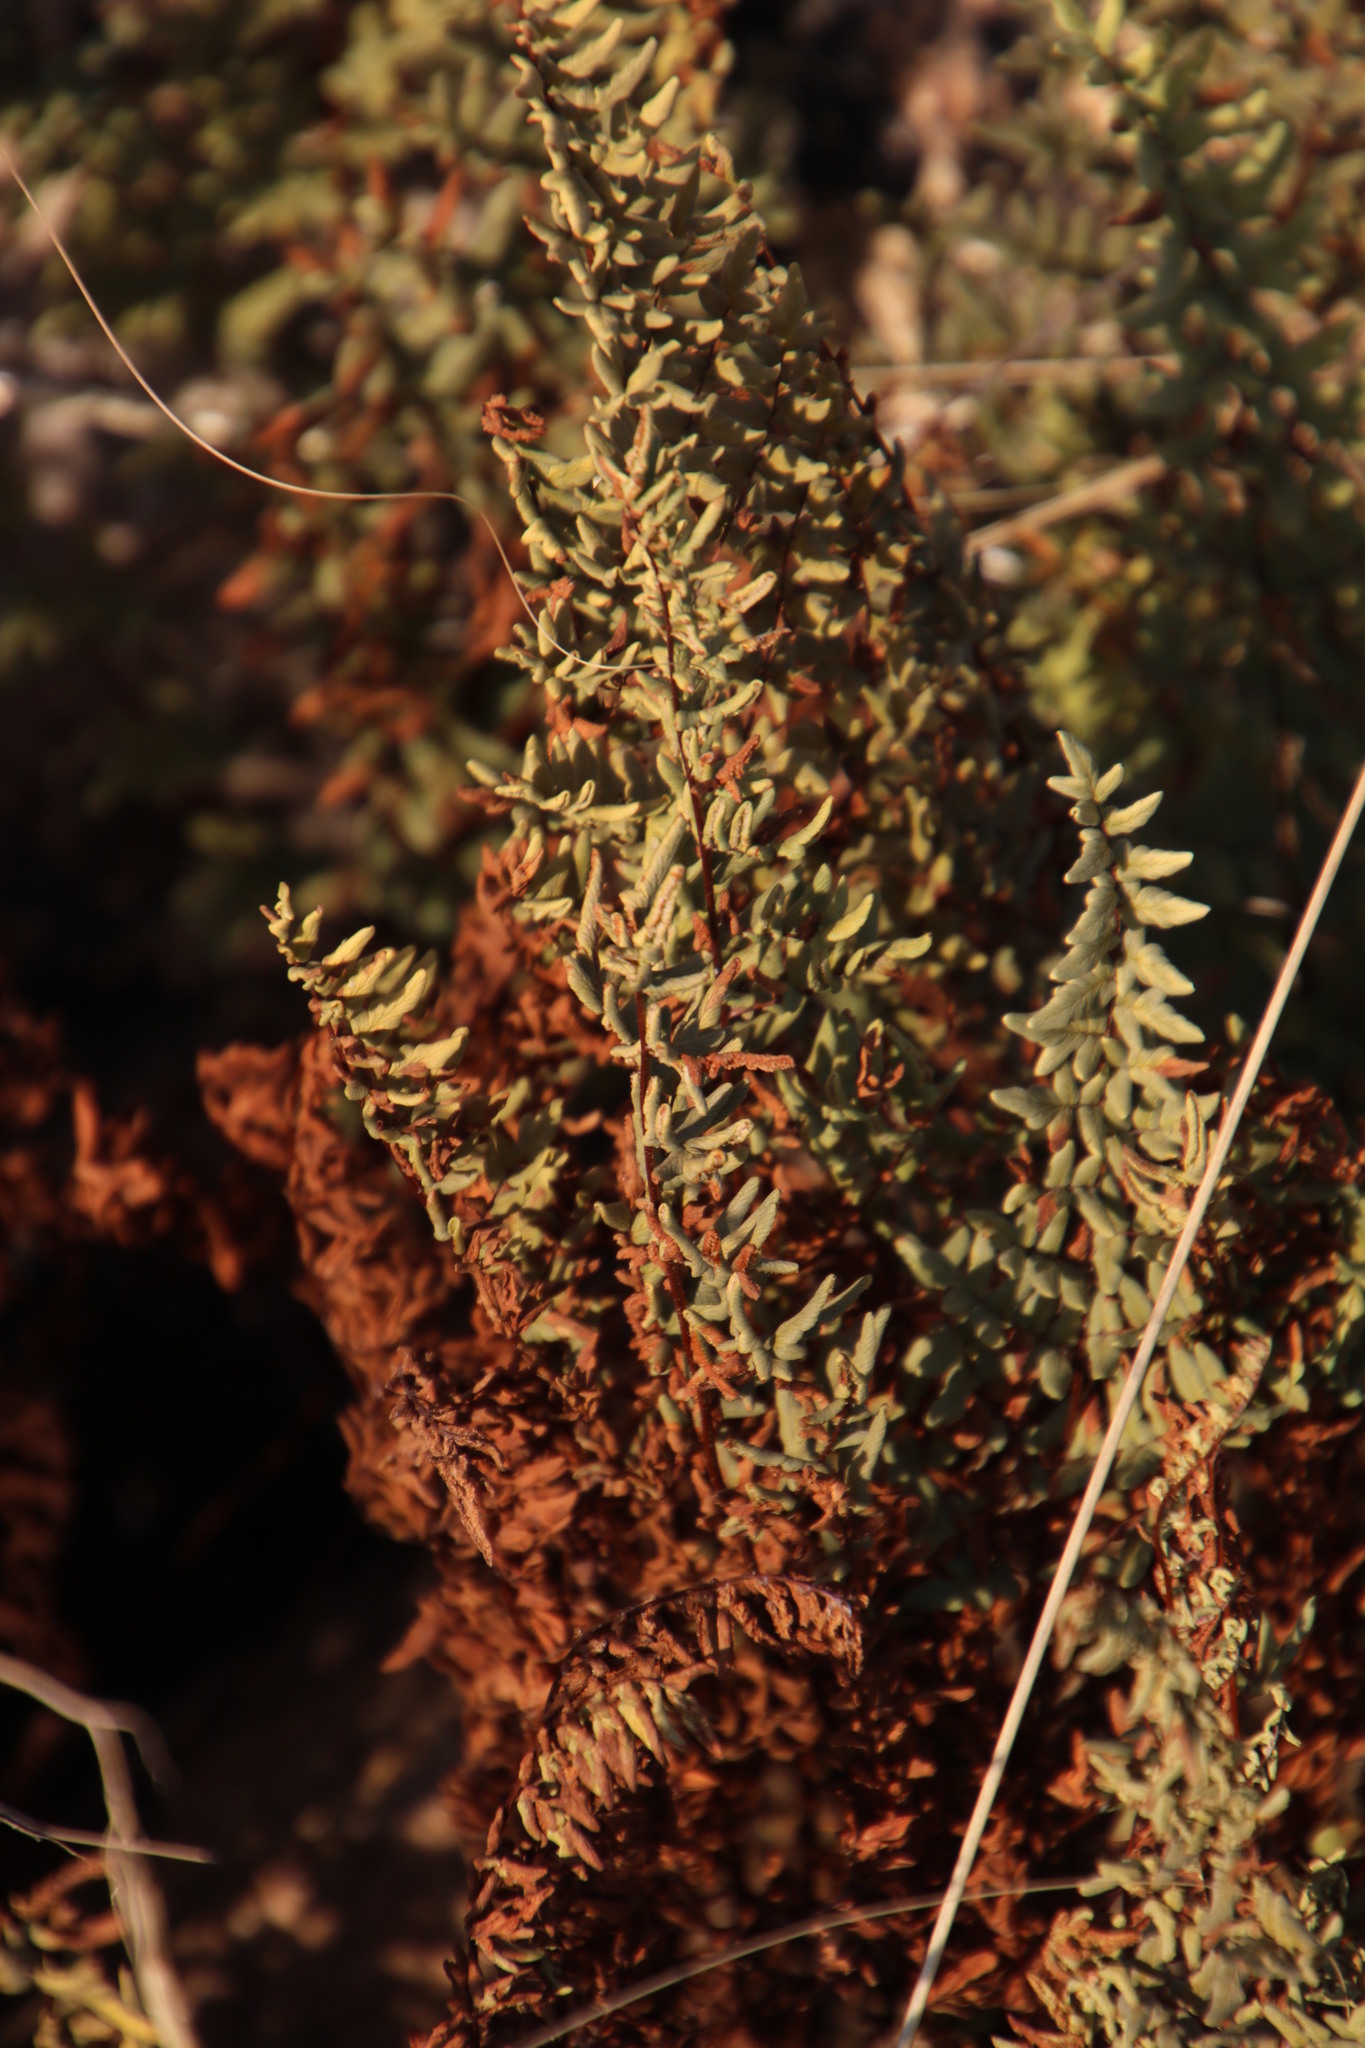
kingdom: Plantae
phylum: Tracheophyta
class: Polypodiopsida
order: Polypodiales
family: Pteridaceae
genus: Cheilanthes
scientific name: Cheilanthes viridis
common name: Green cliffbrake
